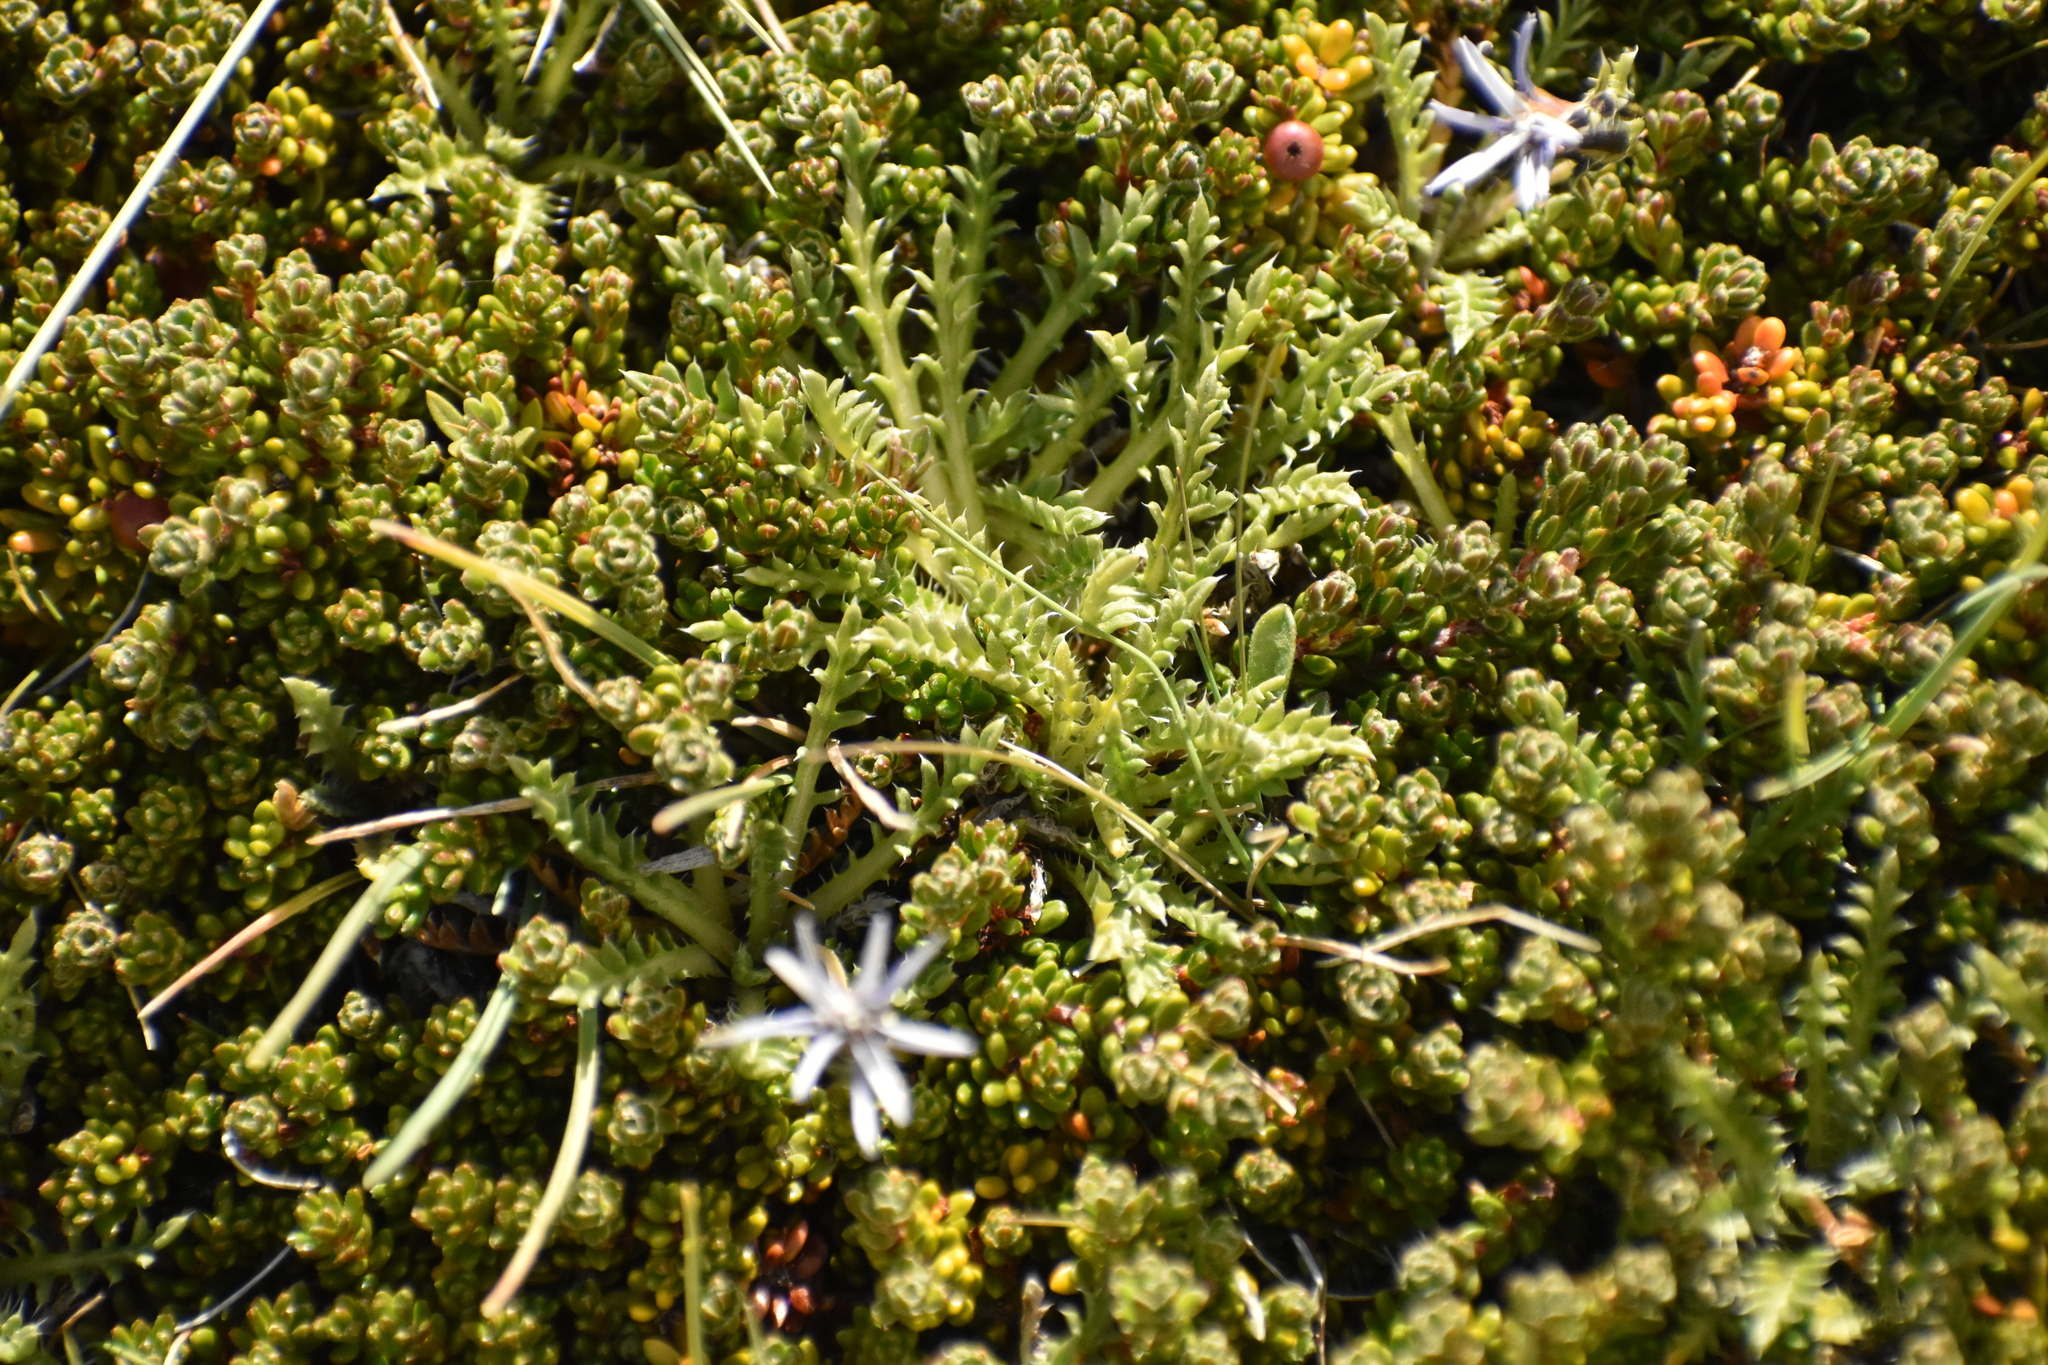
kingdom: Plantae
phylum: Tracheophyta
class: Magnoliopsida
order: Asterales
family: Asteraceae
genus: Perezia
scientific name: Perezia pilifera
